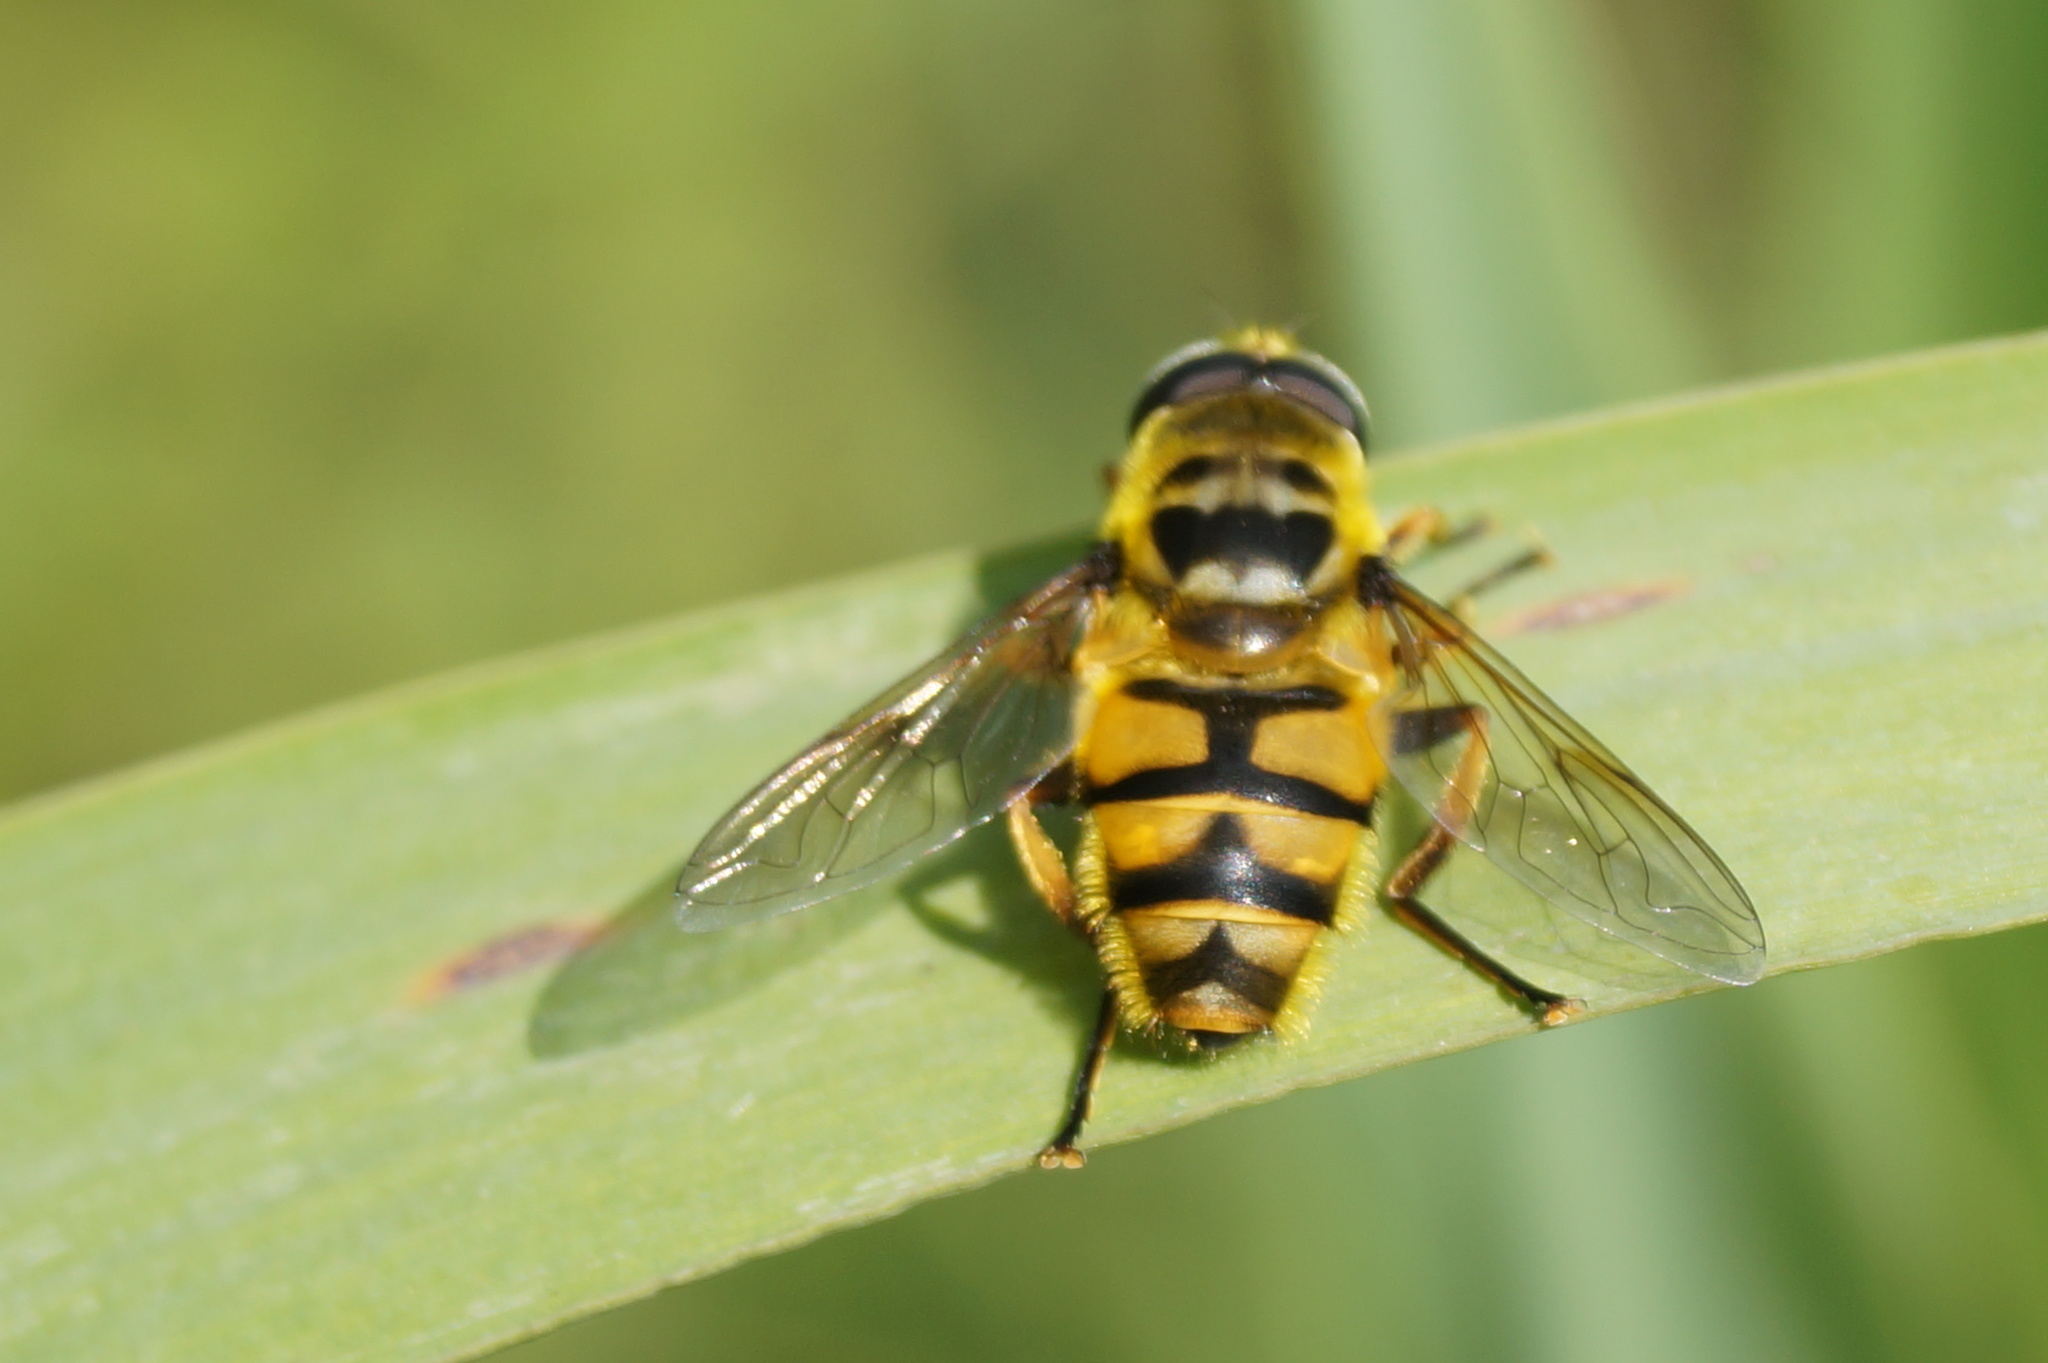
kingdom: Animalia
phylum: Arthropoda
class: Insecta
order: Diptera
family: Syrphidae
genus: Myathropa
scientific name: Myathropa florea
